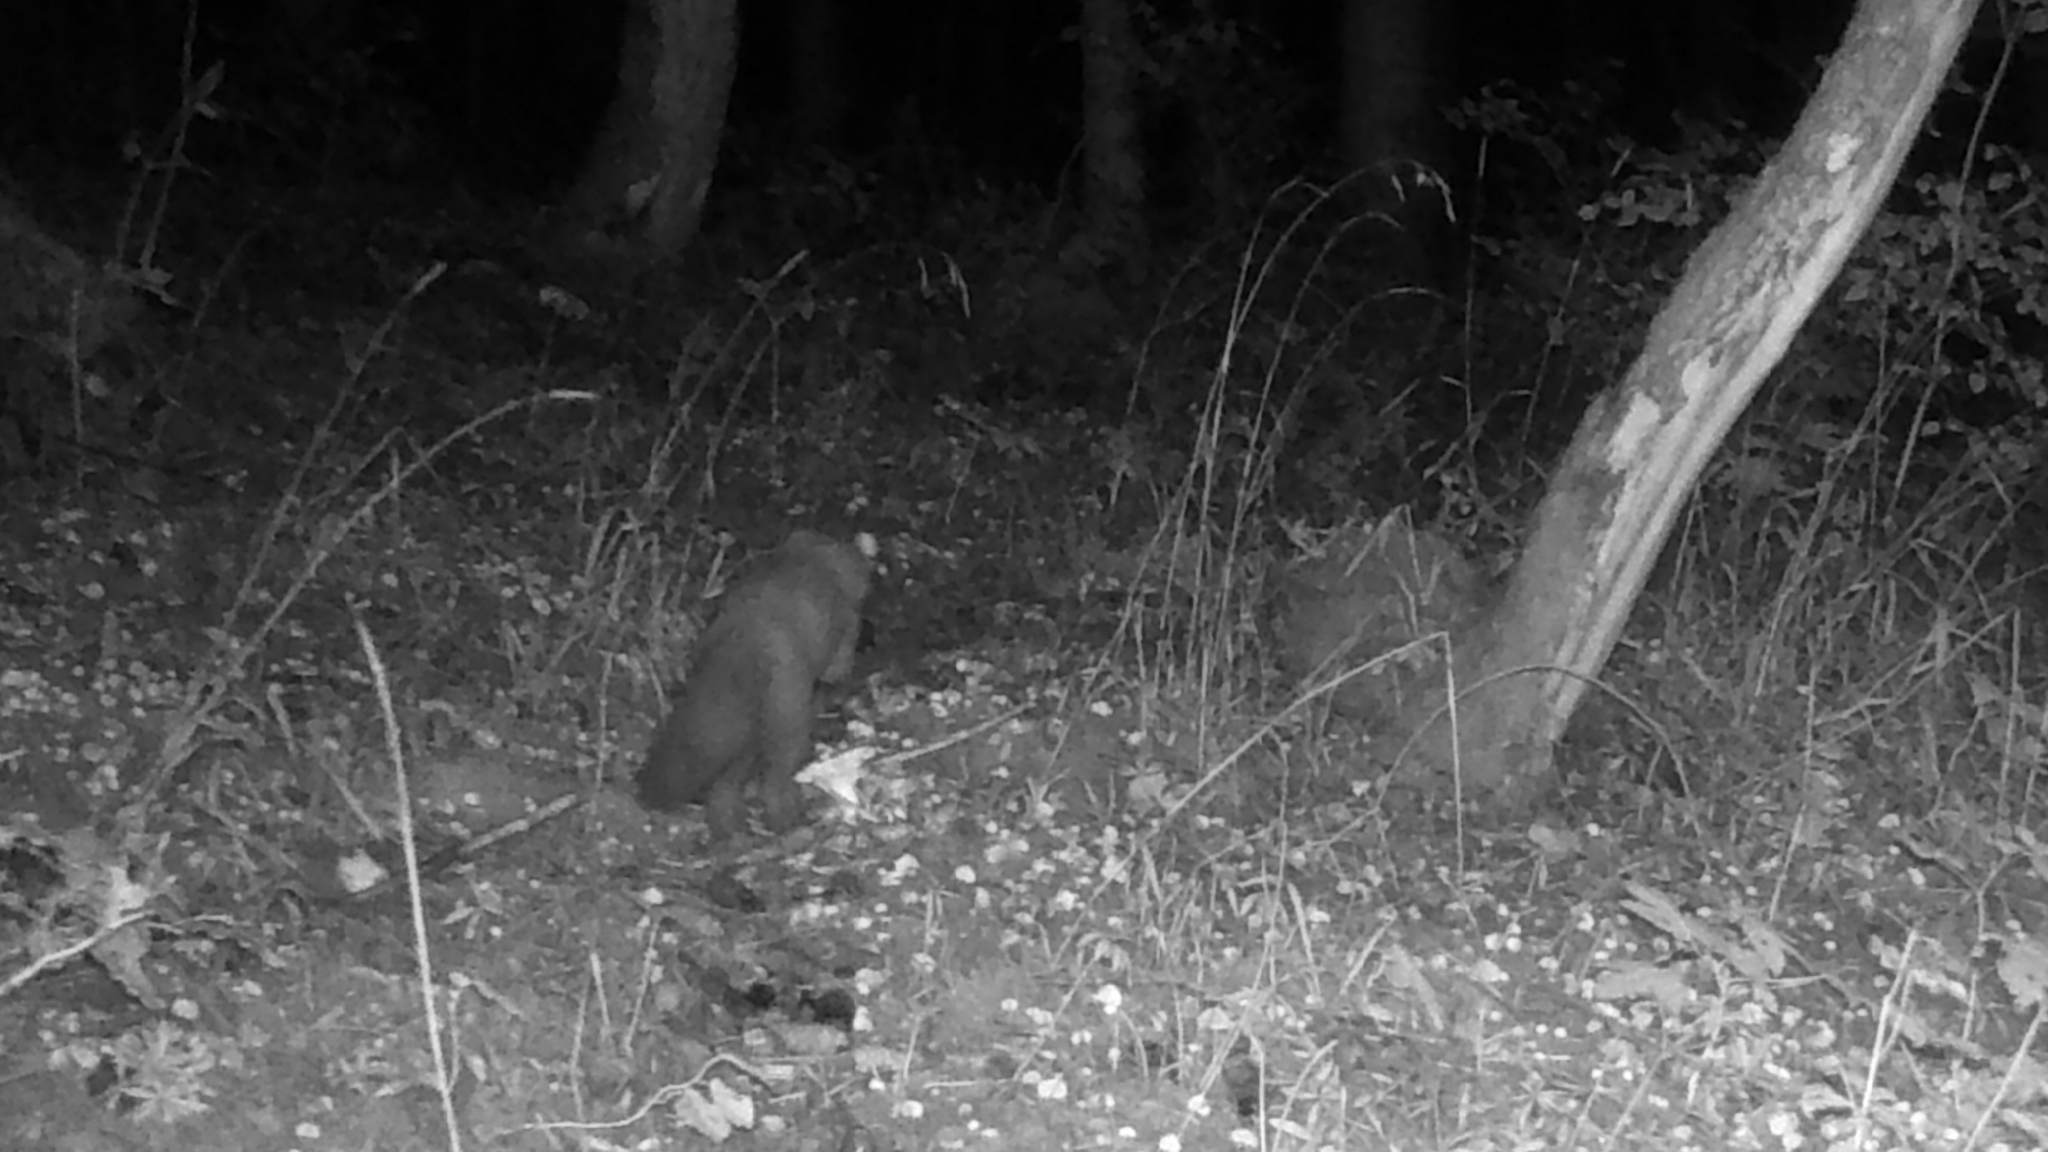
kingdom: Animalia
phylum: Chordata
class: Mammalia
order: Carnivora
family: Mustelidae
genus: Martes
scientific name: Martes martes
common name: European pine marten
